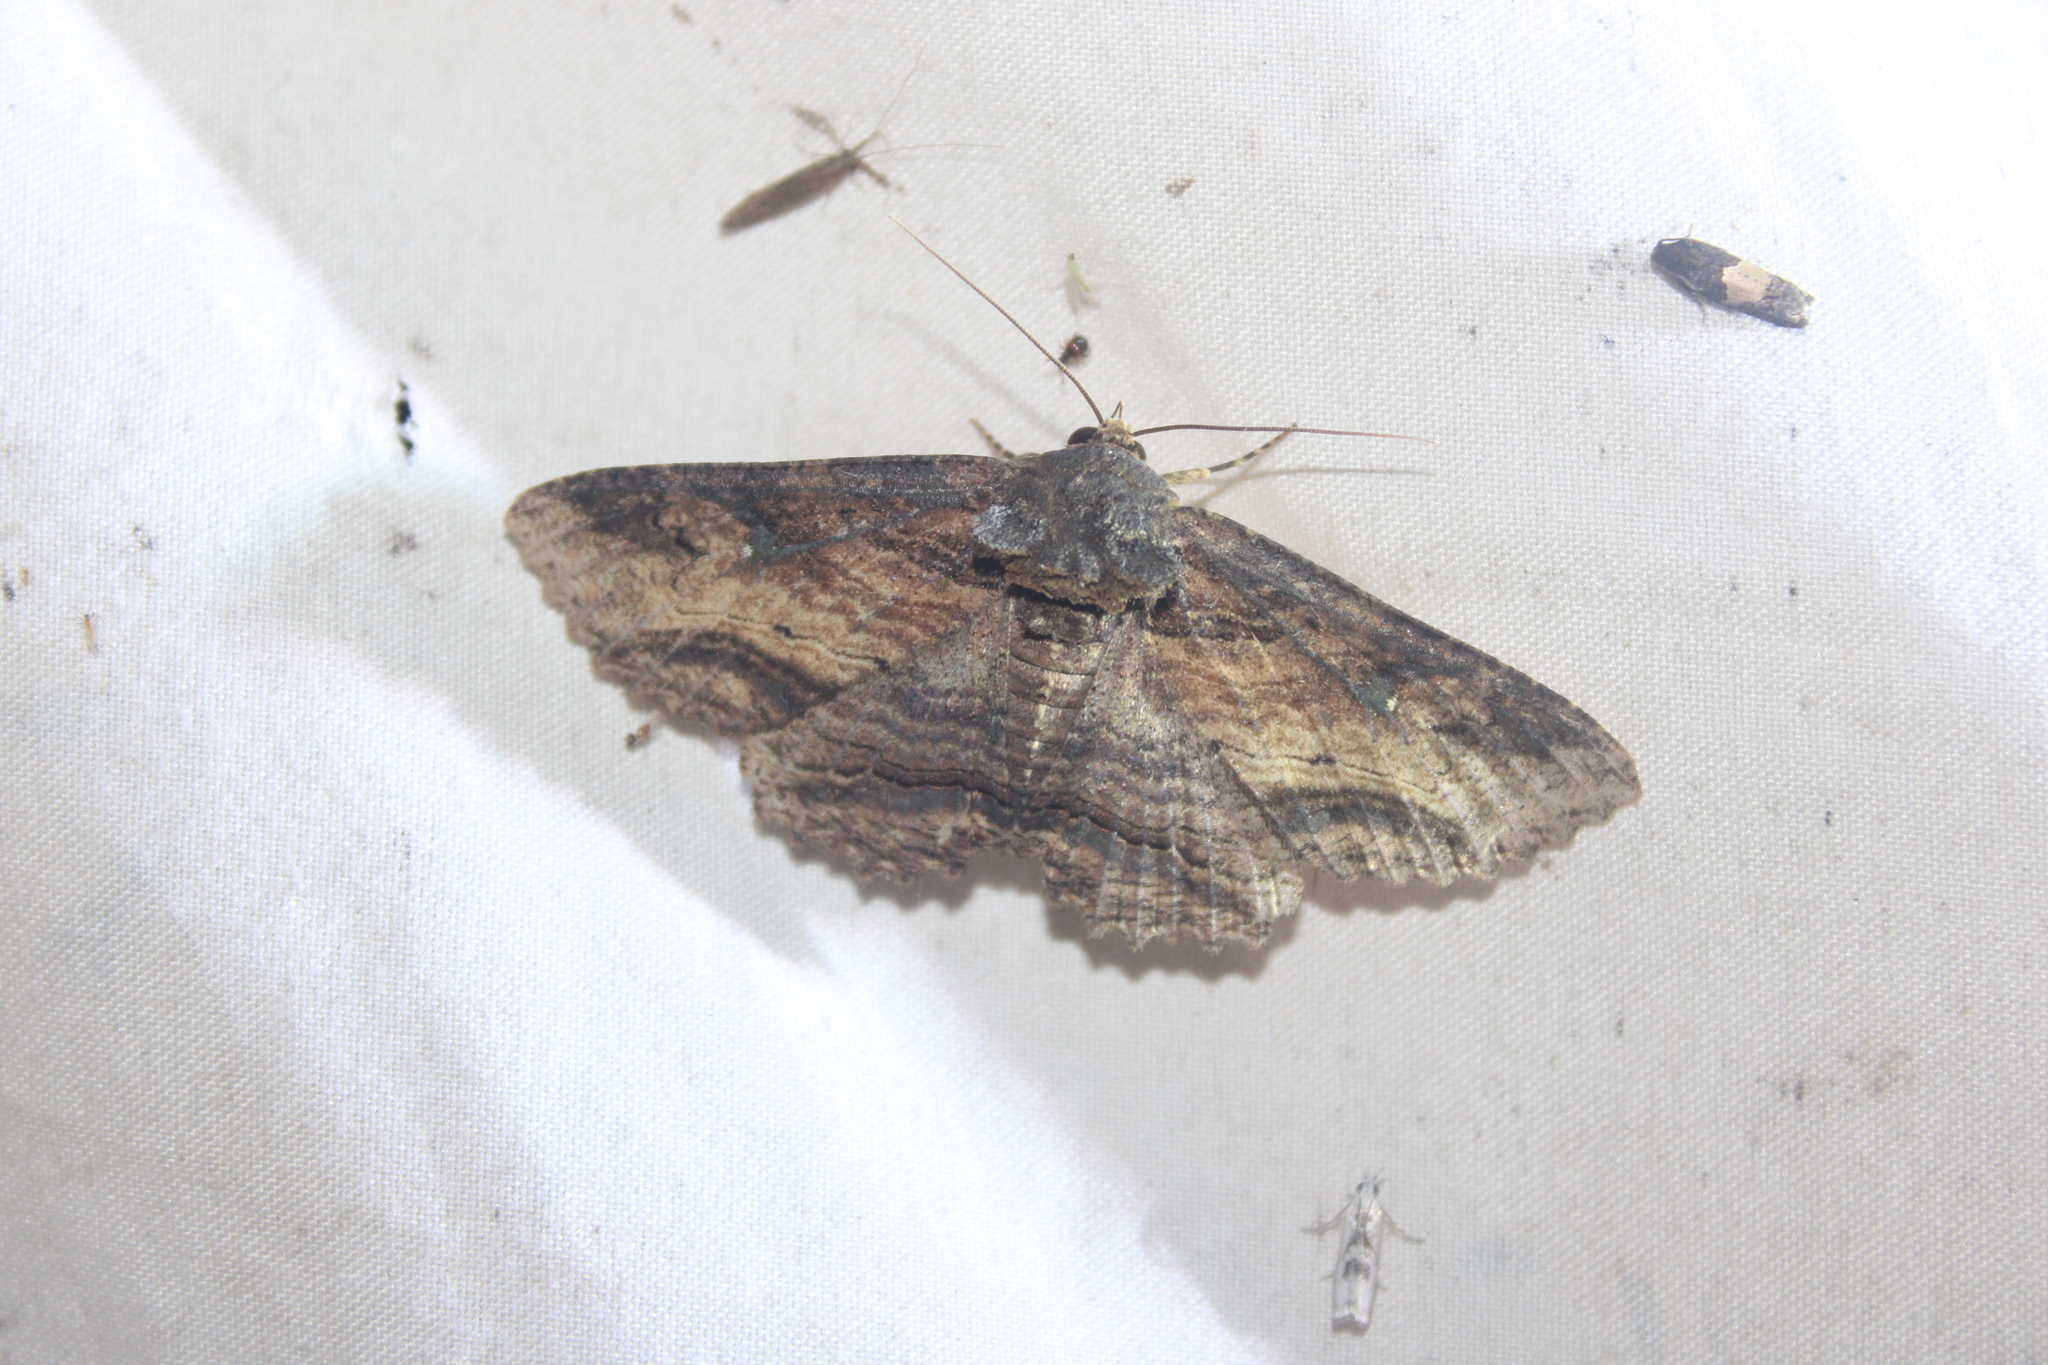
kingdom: Animalia
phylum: Arthropoda
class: Insecta
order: Lepidoptera
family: Erebidae
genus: Zale
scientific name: Zale lunata
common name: Lunate zale moth
